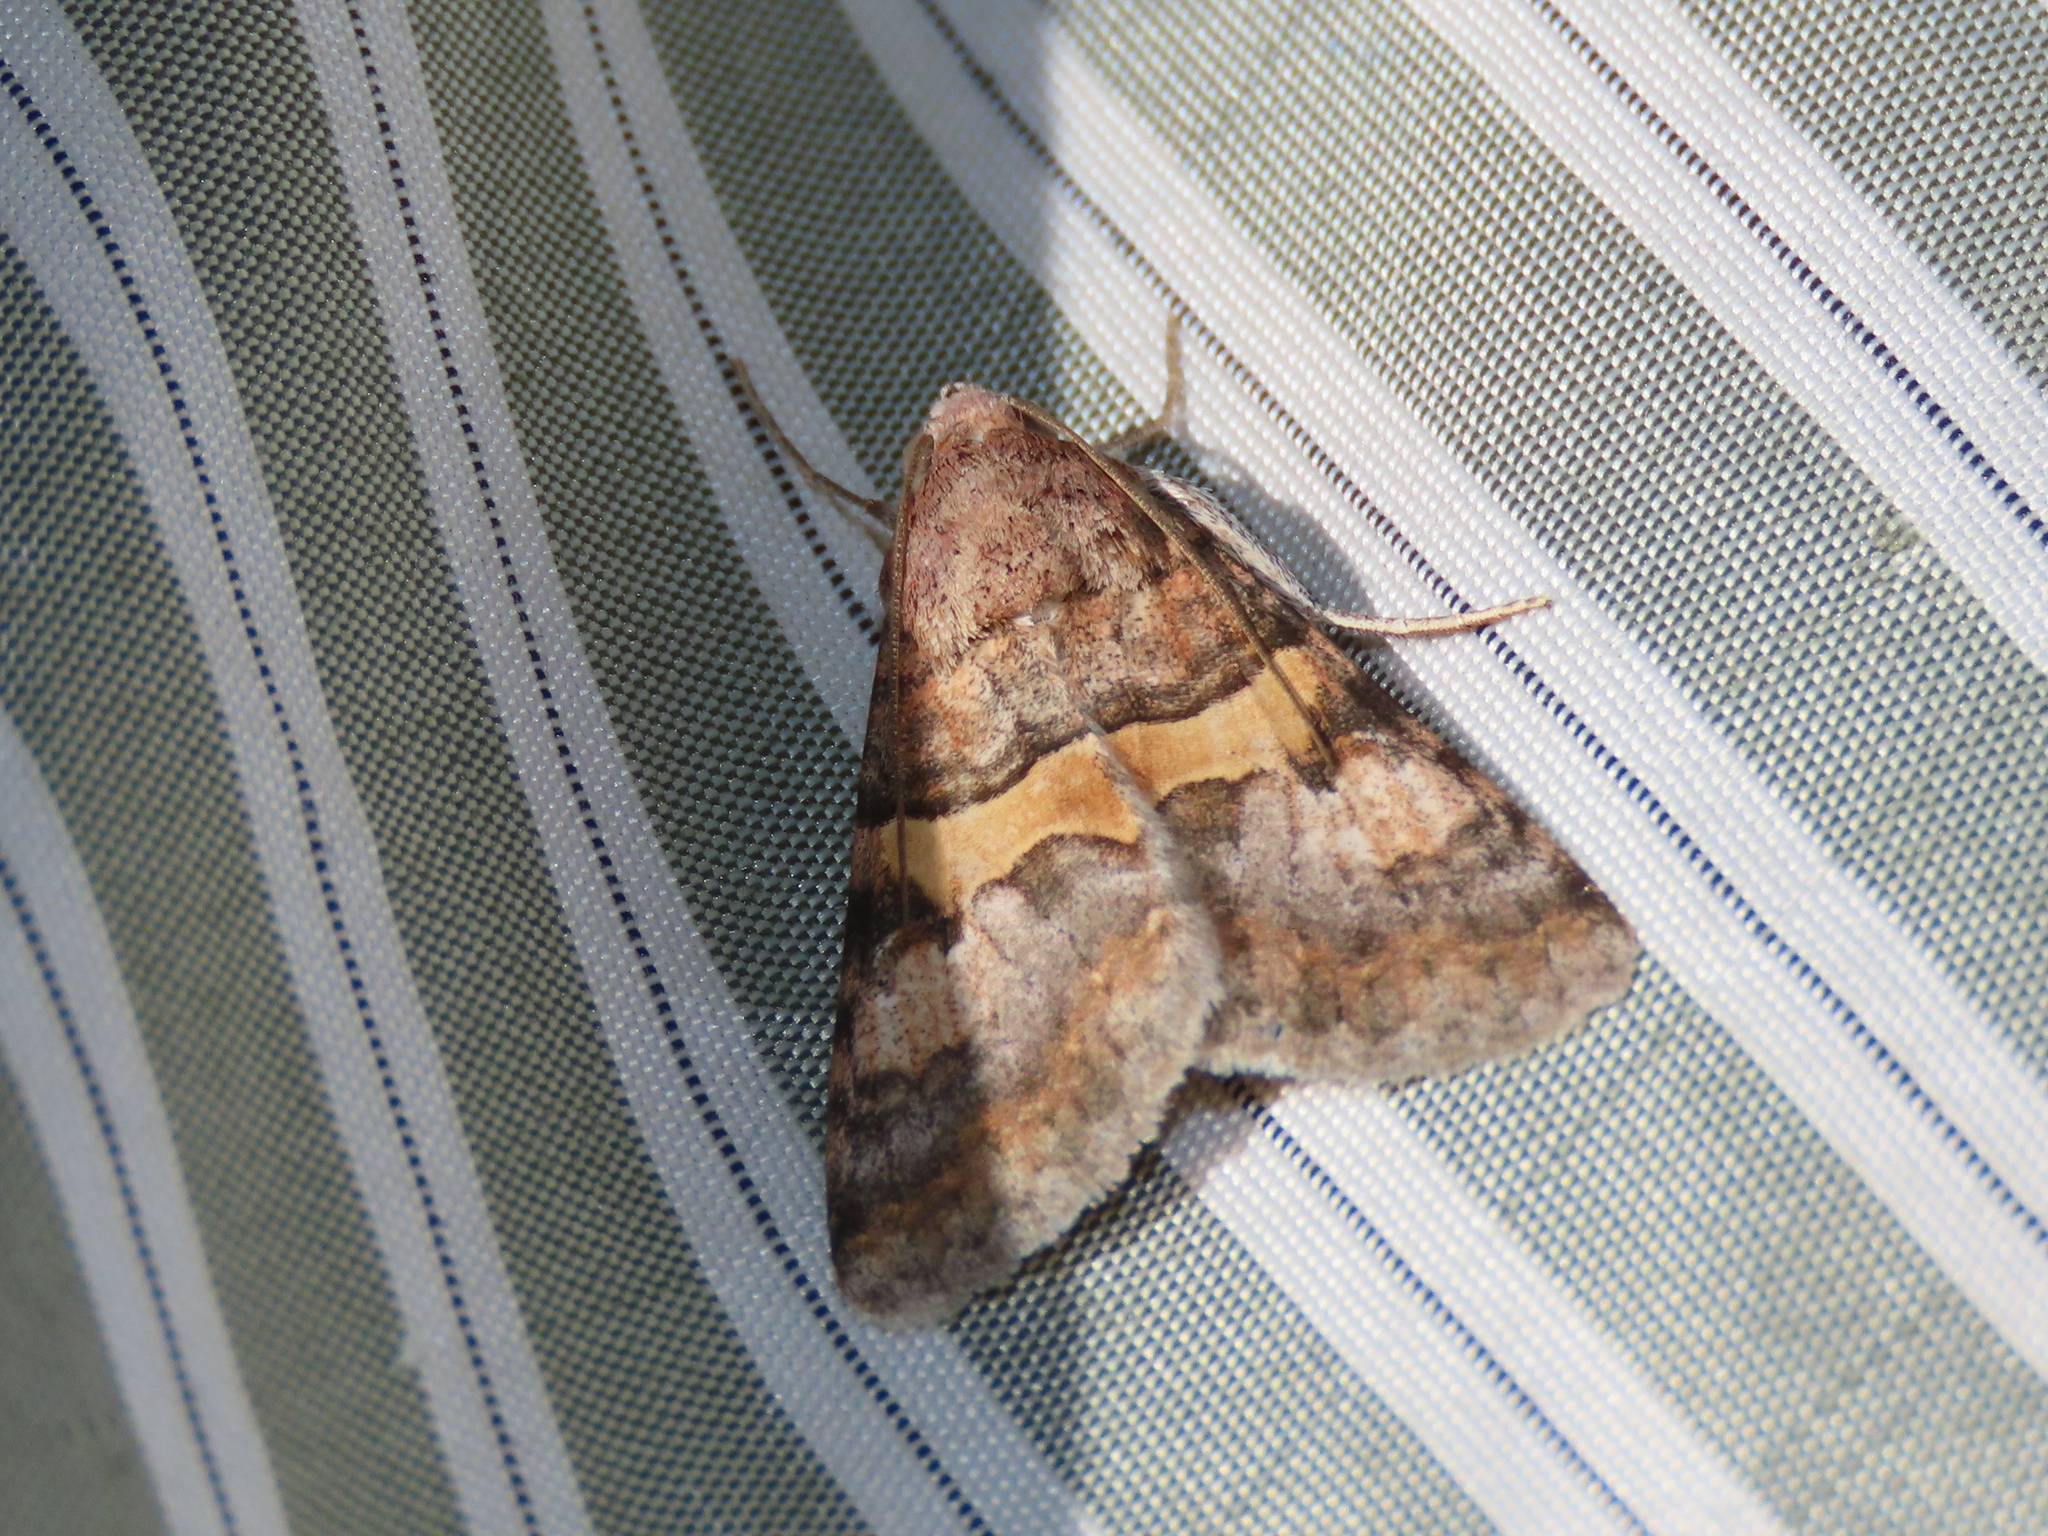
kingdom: Animalia
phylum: Arthropoda
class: Insecta
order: Lepidoptera
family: Erebidae
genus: Melipotis
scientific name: Melipotis jucunda
